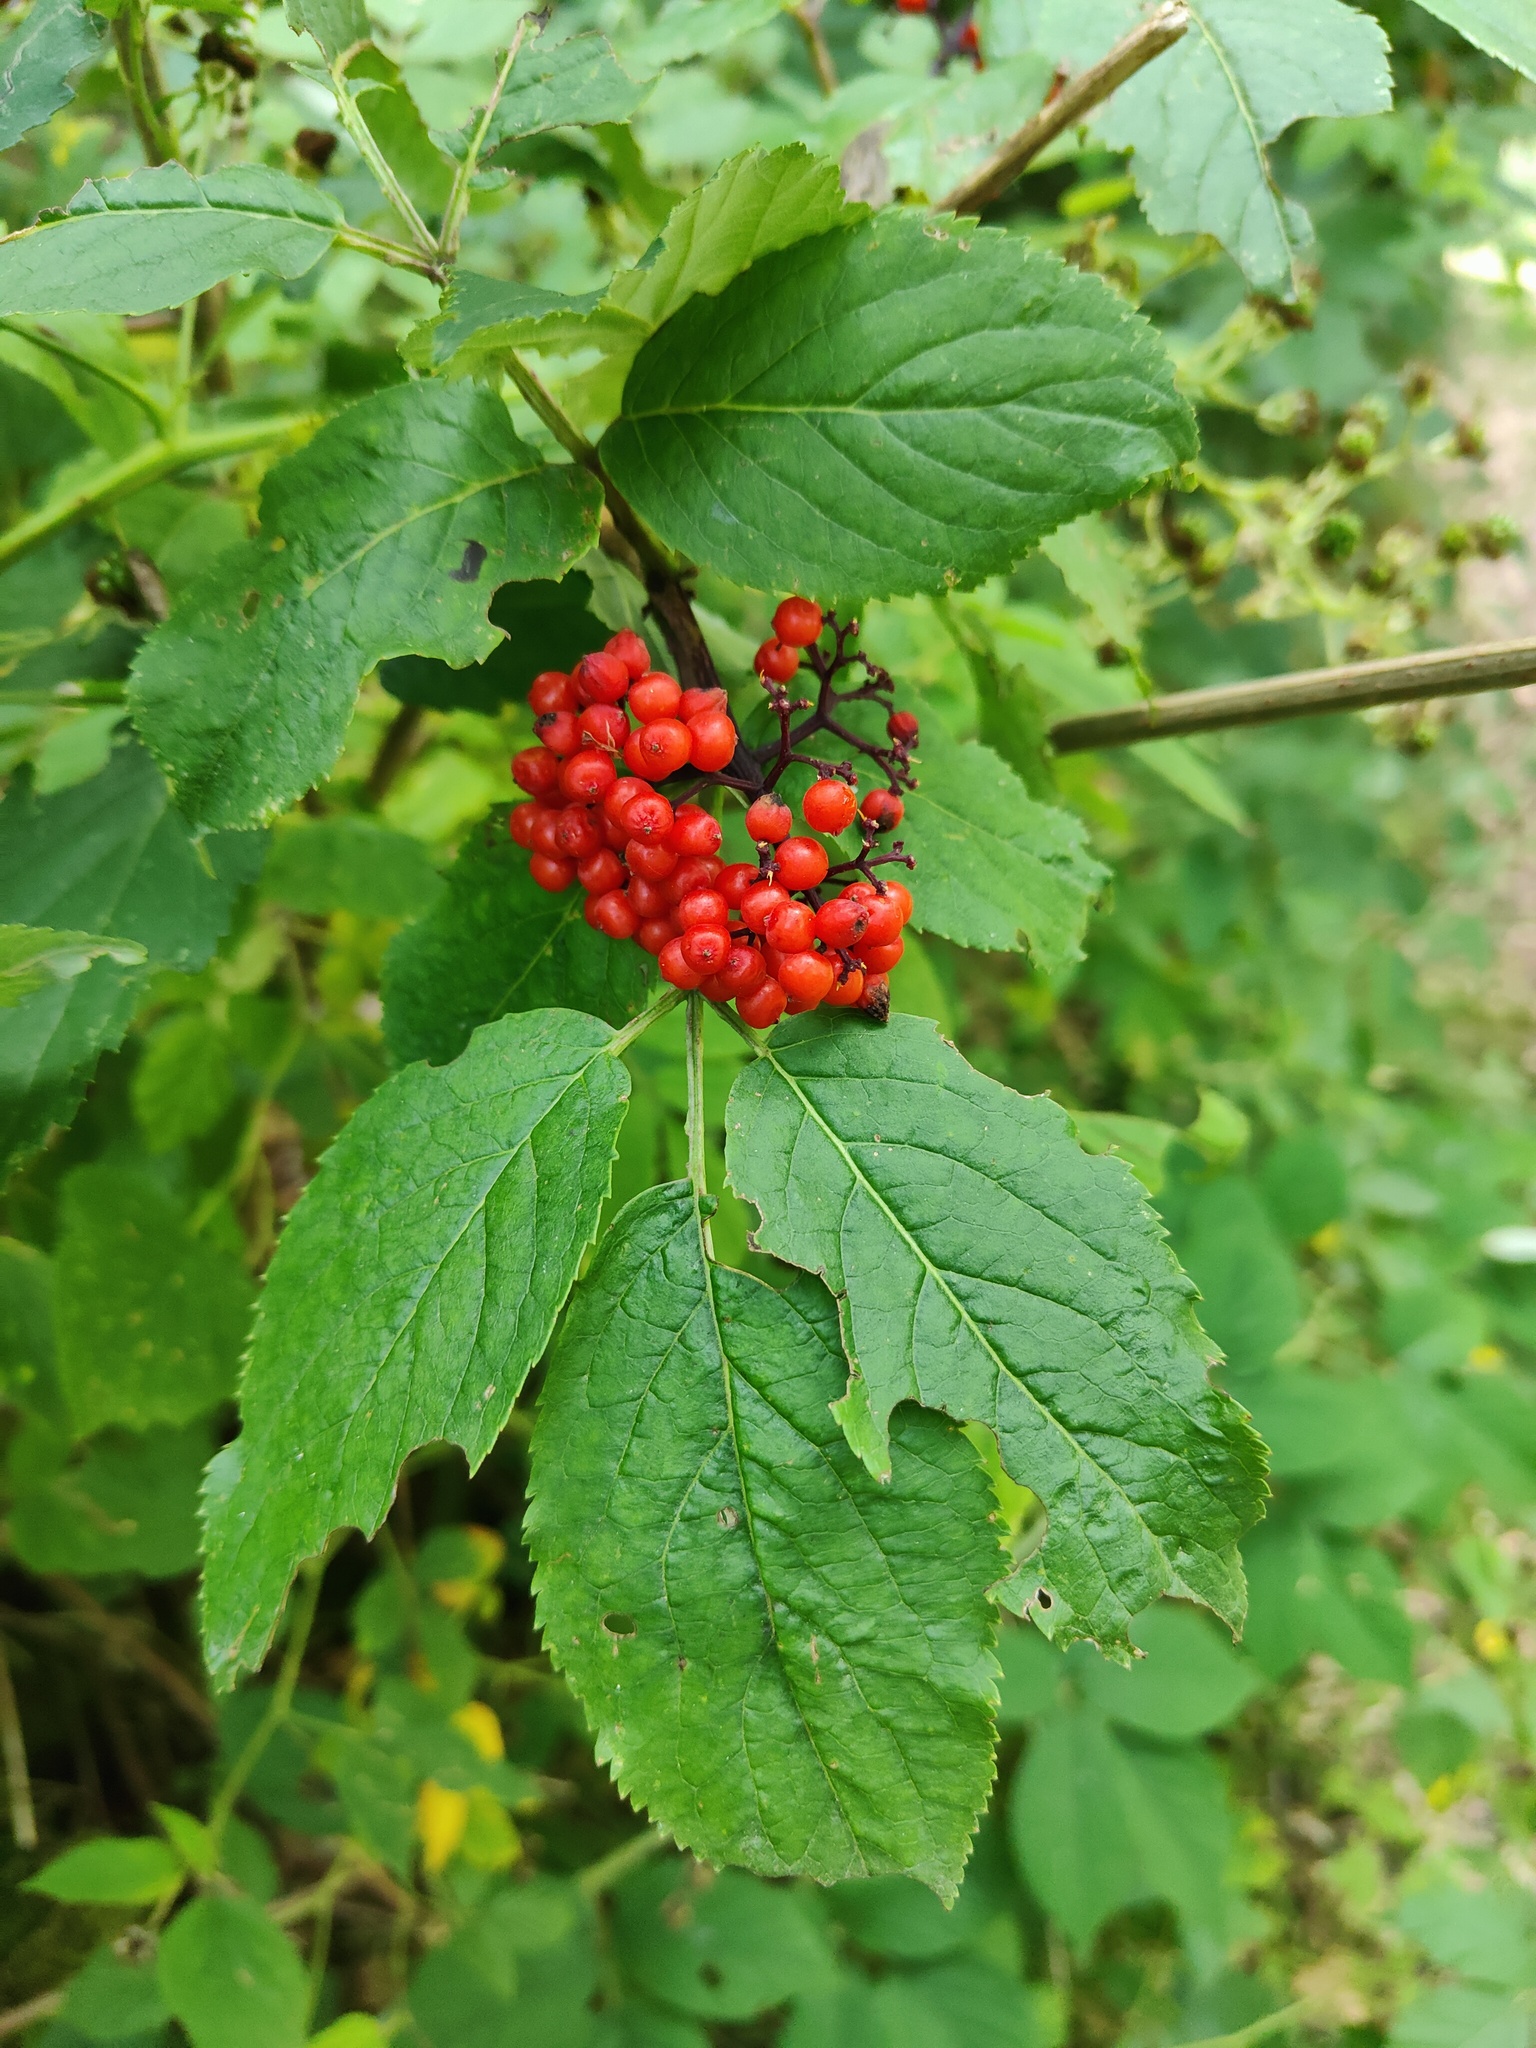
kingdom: Plantae
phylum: Tracheophyta
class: Magnoliopsida
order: Dipsacales
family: Viburnaceae
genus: Sambucus
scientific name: Sambucus racemosa
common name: Red-berried elder
